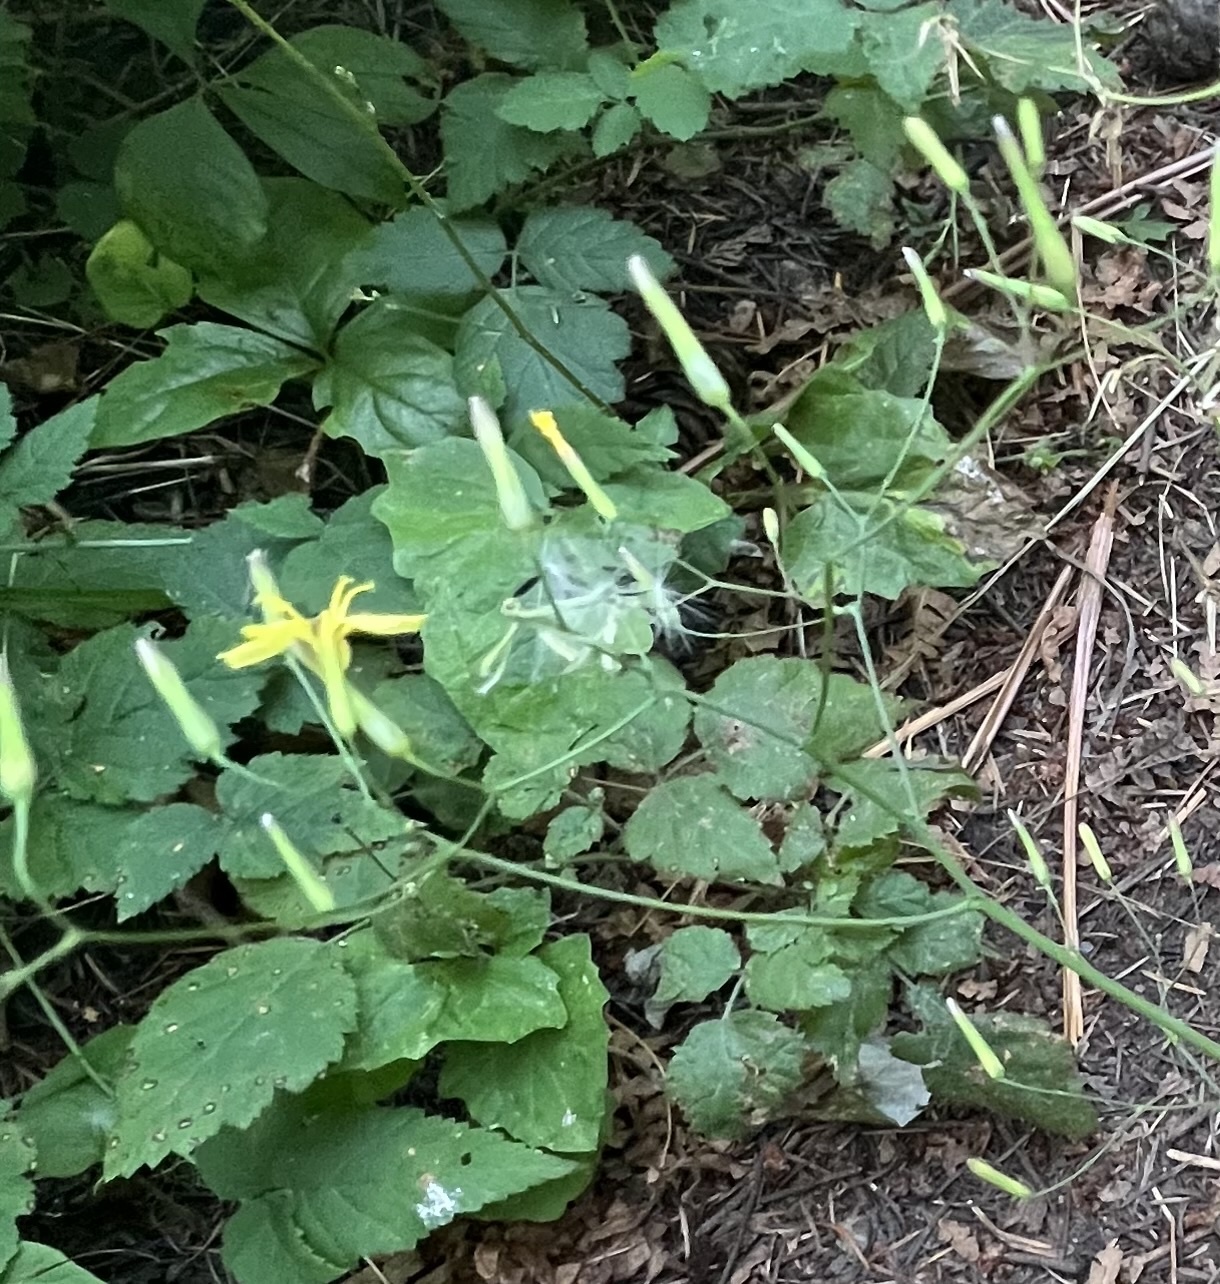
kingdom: Plantae
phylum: Tracheophyta
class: Magnoliopsida
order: Asterales
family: Asteraceae
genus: Mycelis
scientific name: Mycelis muralis
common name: Wall lettuce
